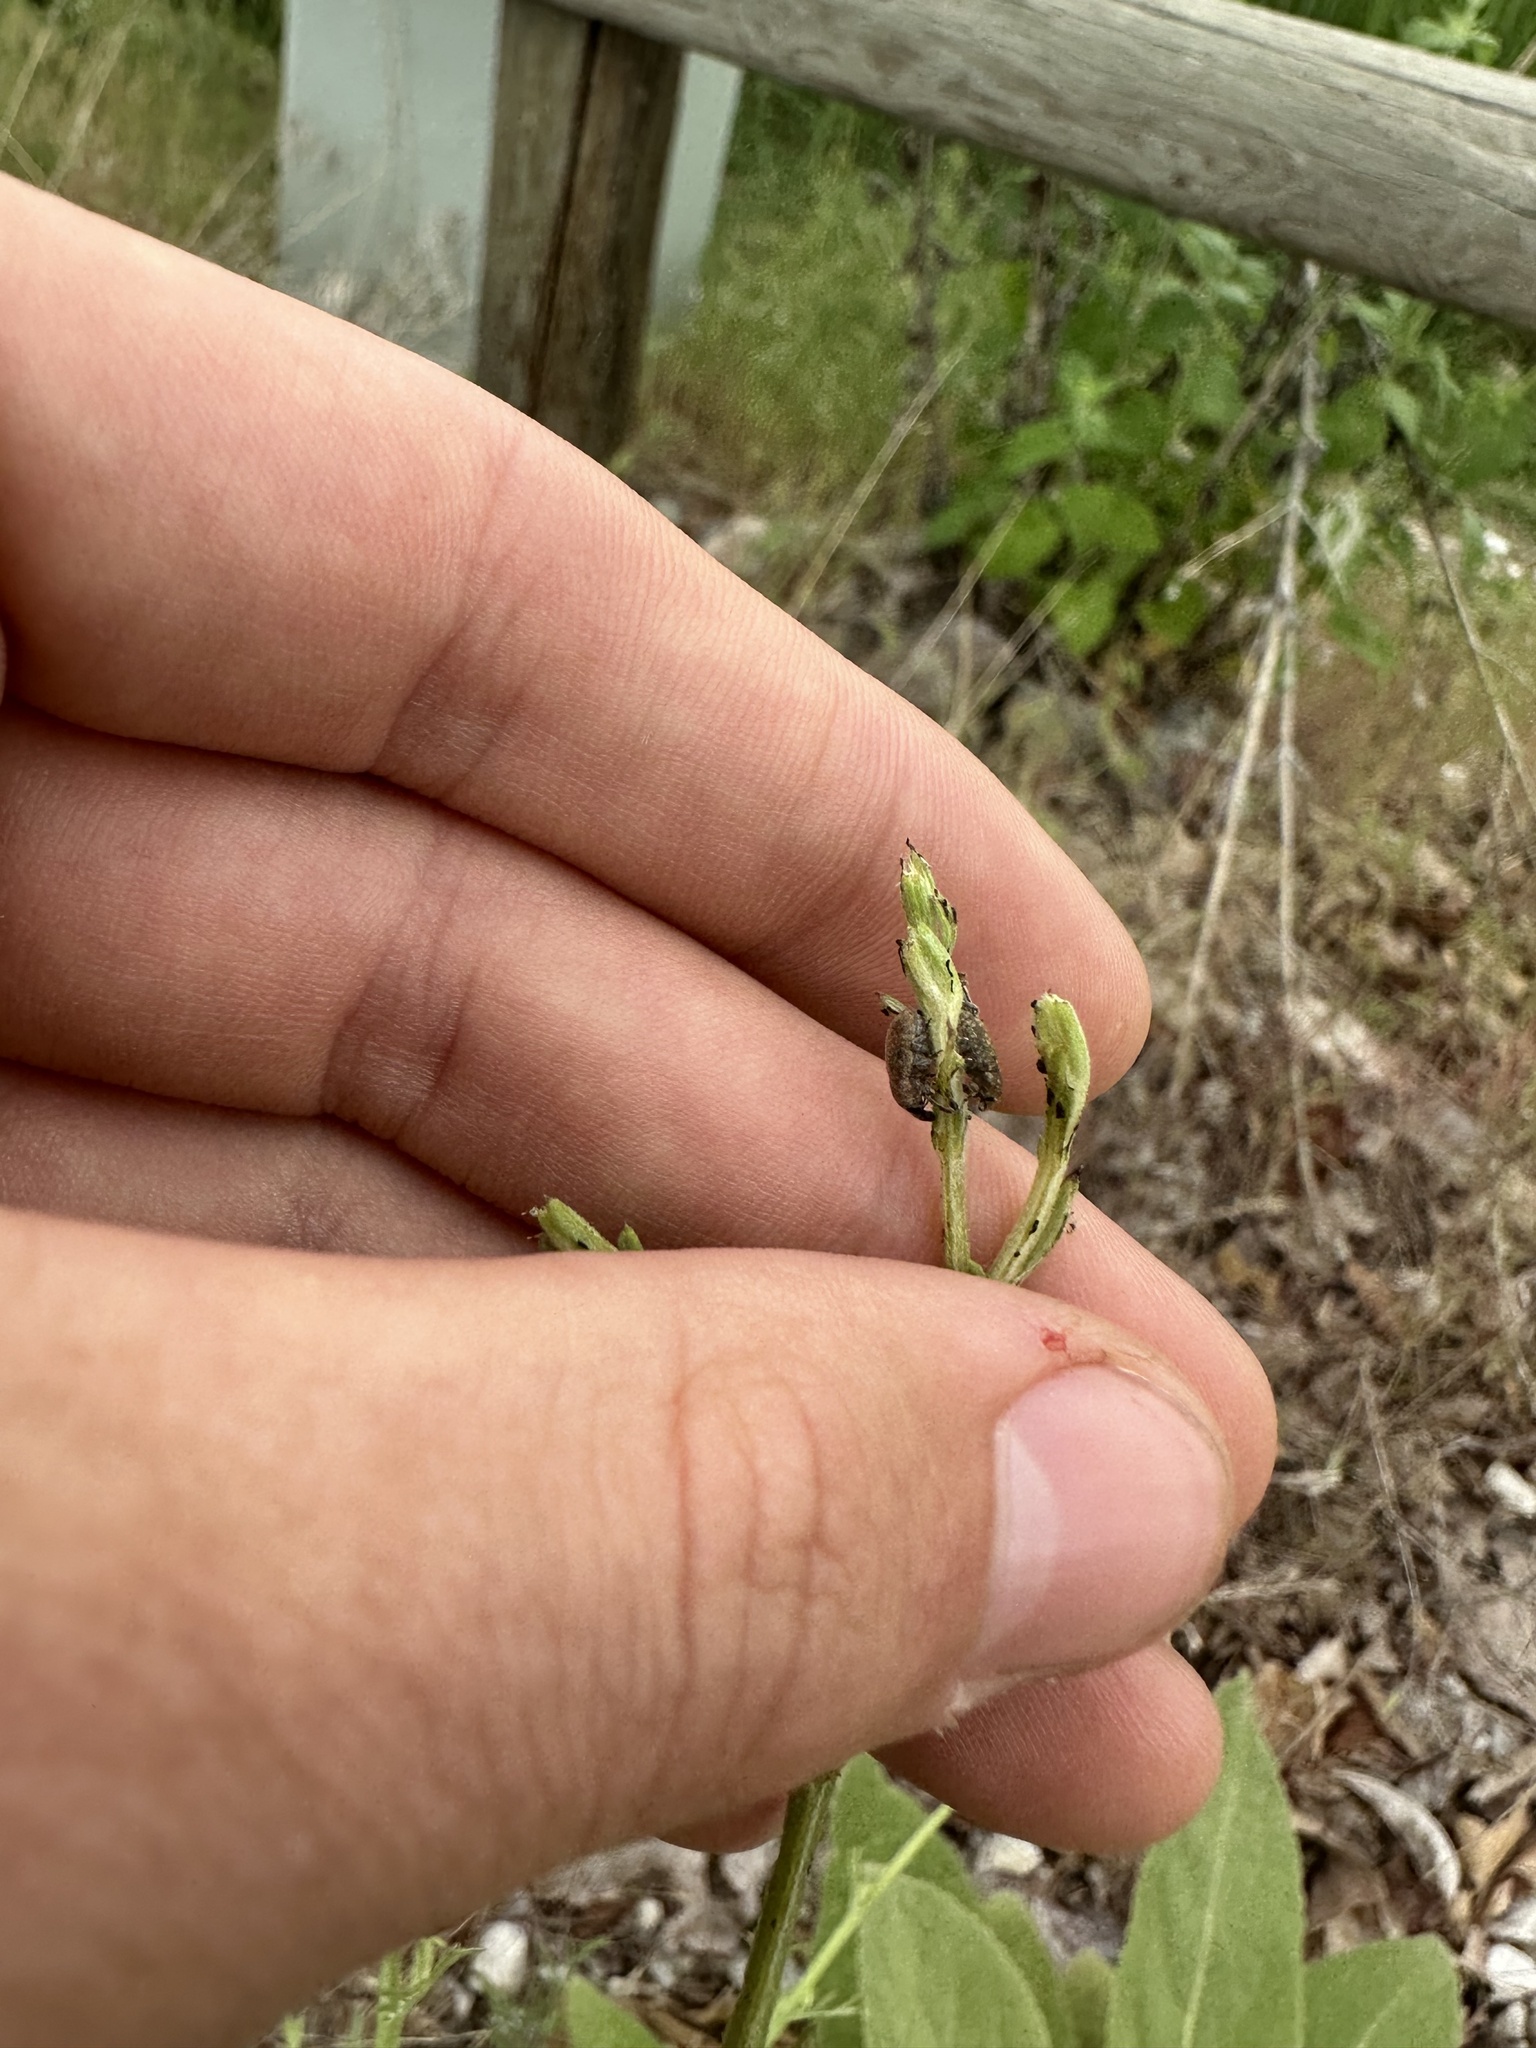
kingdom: Animalia
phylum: Arthropoda
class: Insecta
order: Coleoptera
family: Curculionidae
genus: Larinus
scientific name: Larinus minutus
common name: Weevil
